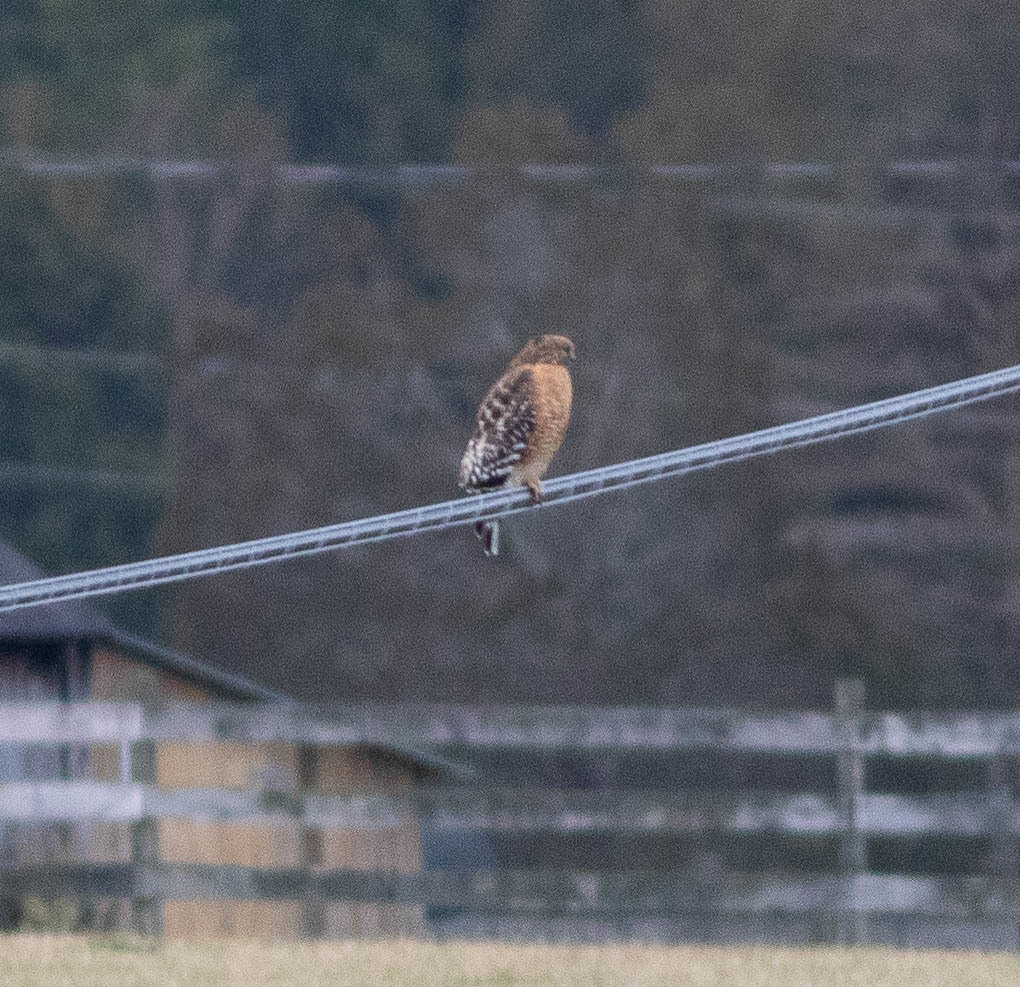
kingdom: Animalia
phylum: Chordata
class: Aves
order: Accipitriformes
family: Accipitridae
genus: Buteo
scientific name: Buteo lineatus
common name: Red-shouldered hawk
